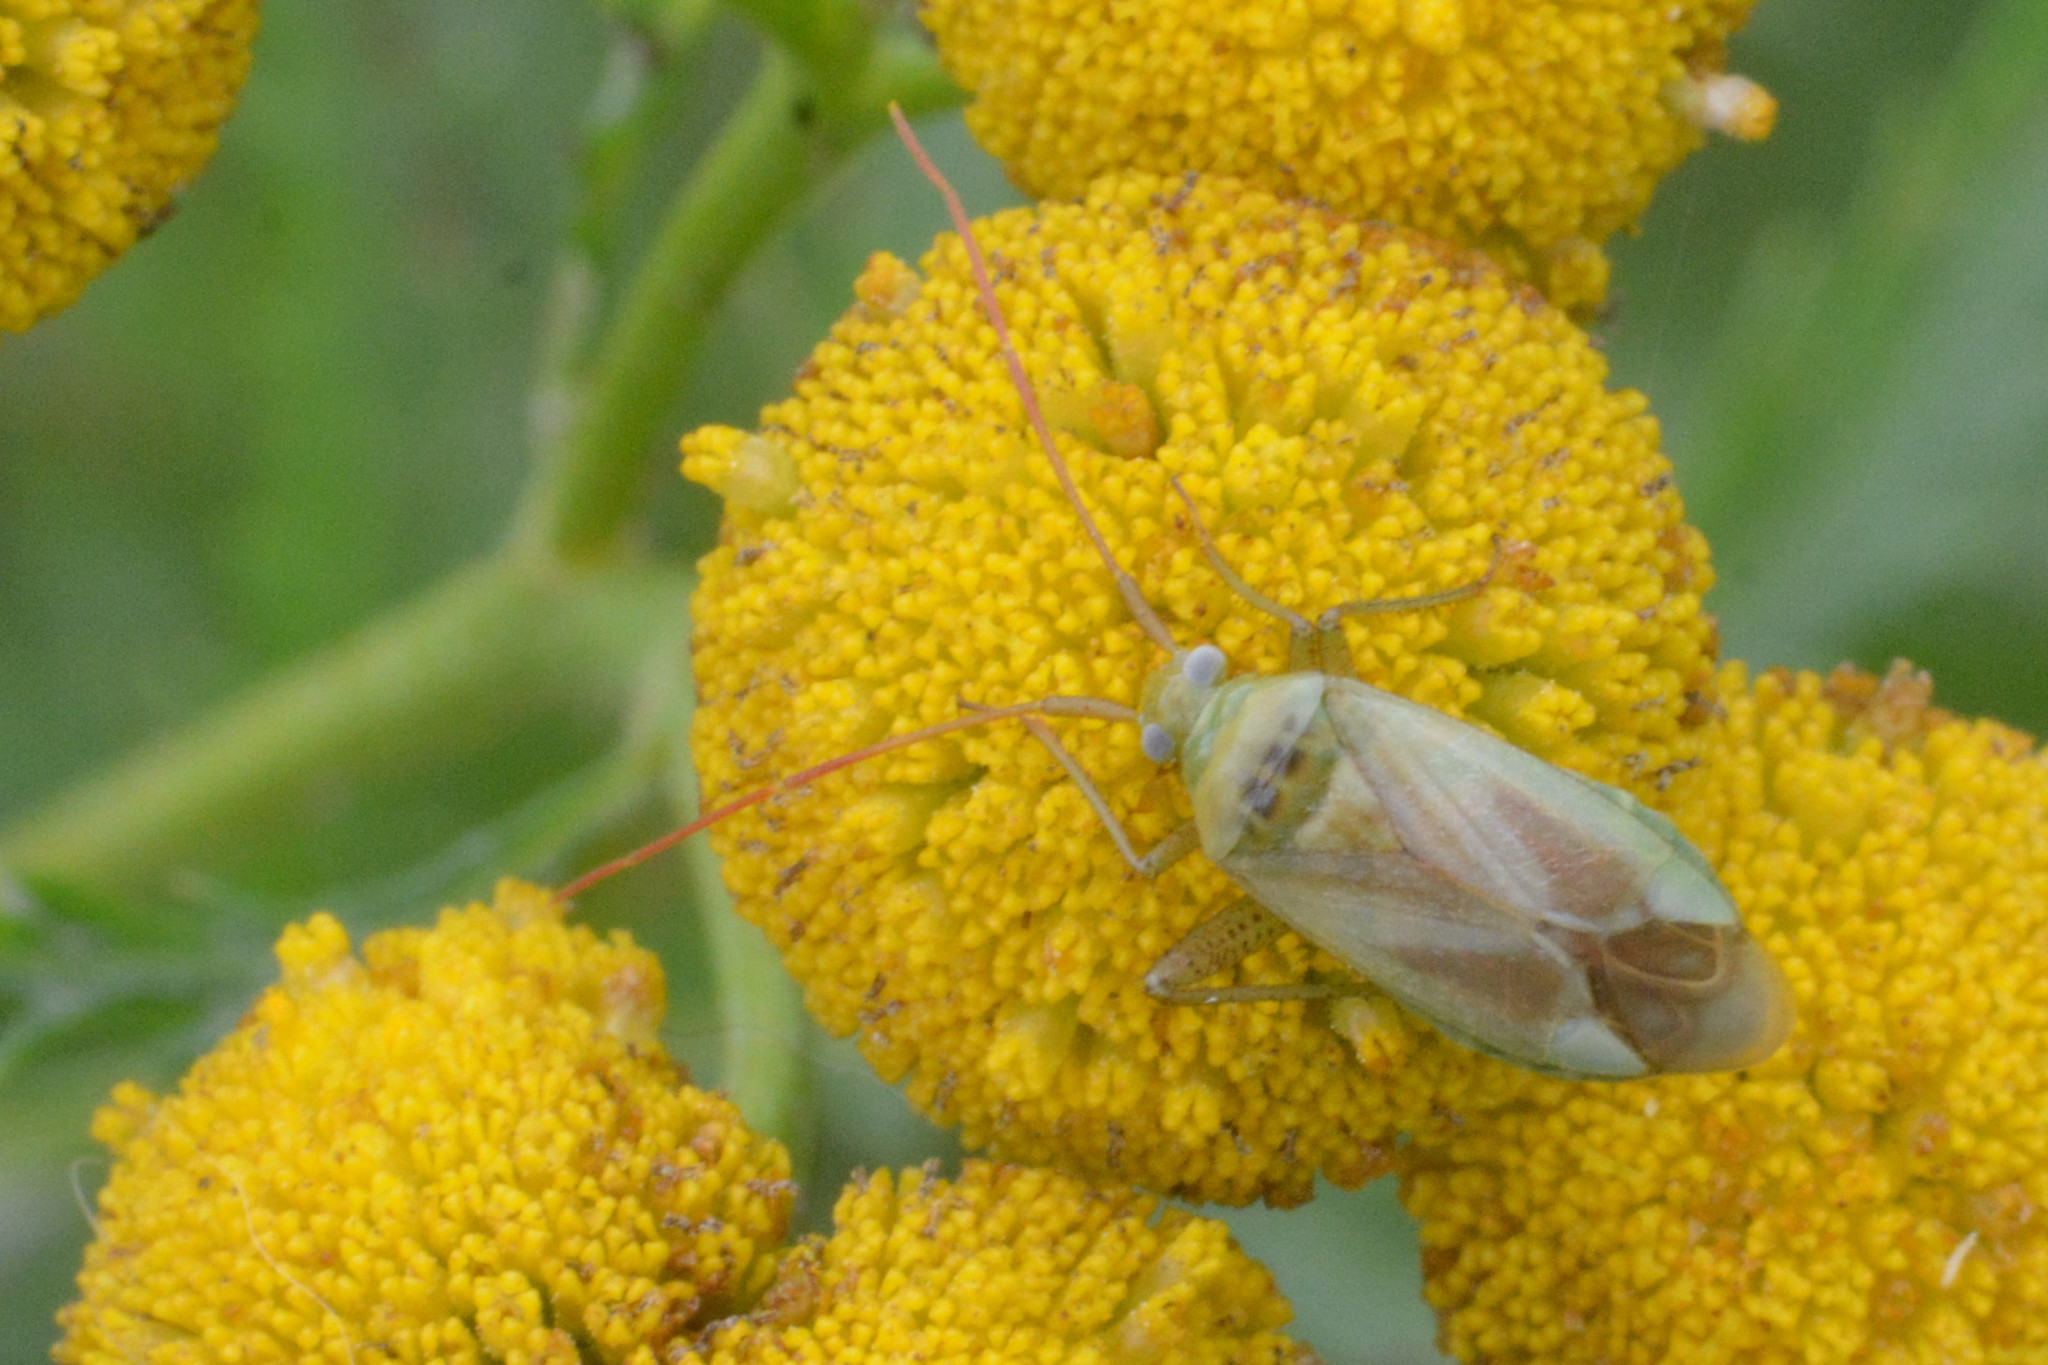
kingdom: Animalia
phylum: Arthropoda
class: Insecta
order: Hemiptera
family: Miridae
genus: Adelphocoris
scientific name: Adelphocoris lineolatus
